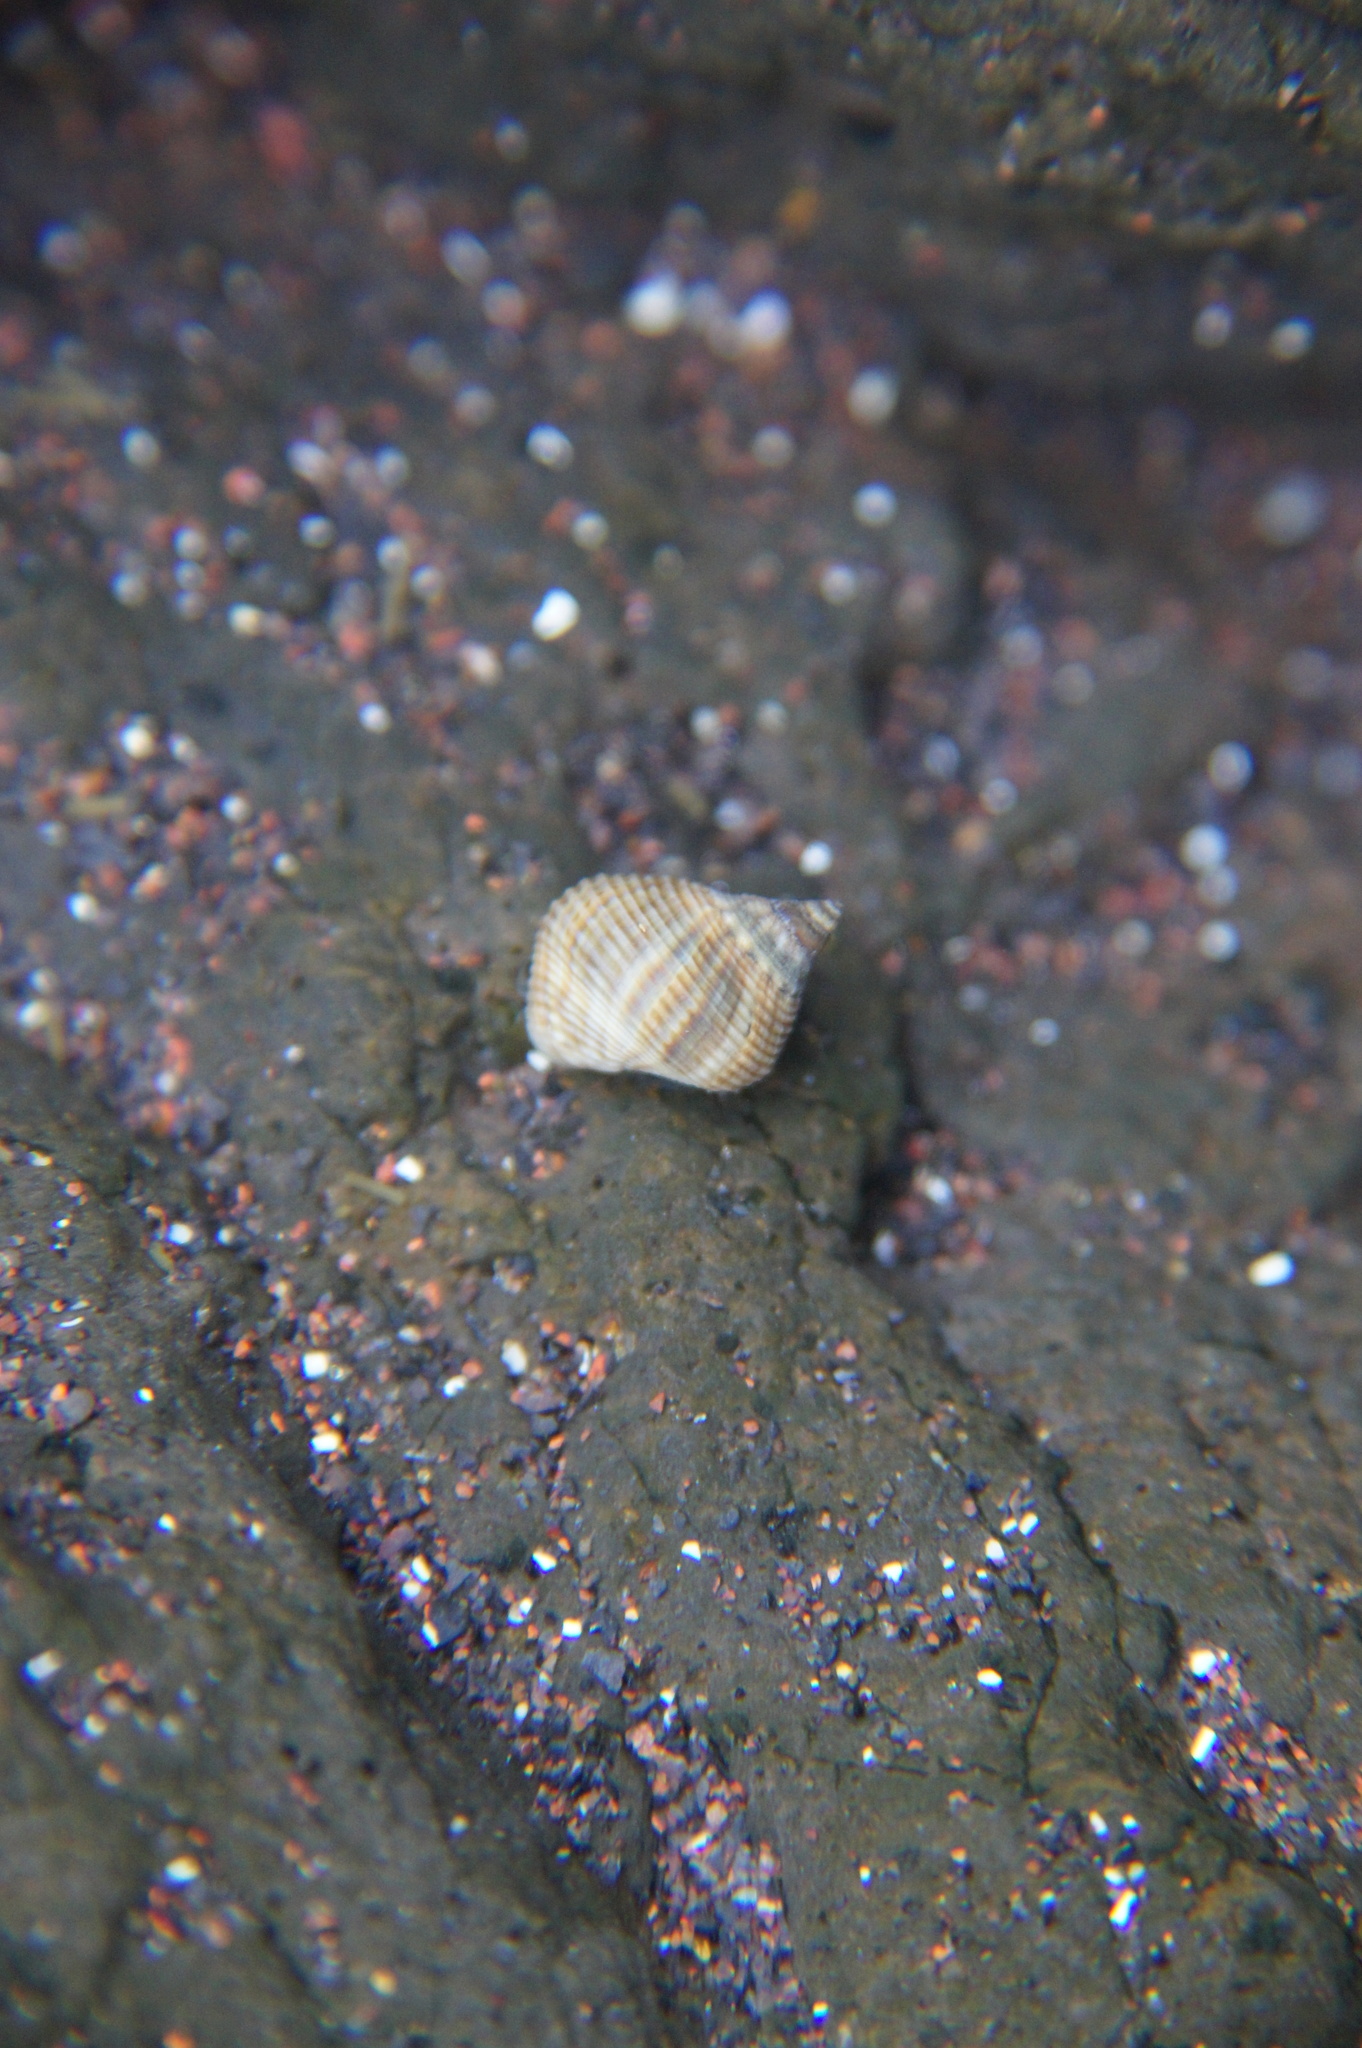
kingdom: Animalia
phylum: Mollusca
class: Gastropoda
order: Littorinimorpha
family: Littorinidae
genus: Tectarius
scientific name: Tectarius striatus
